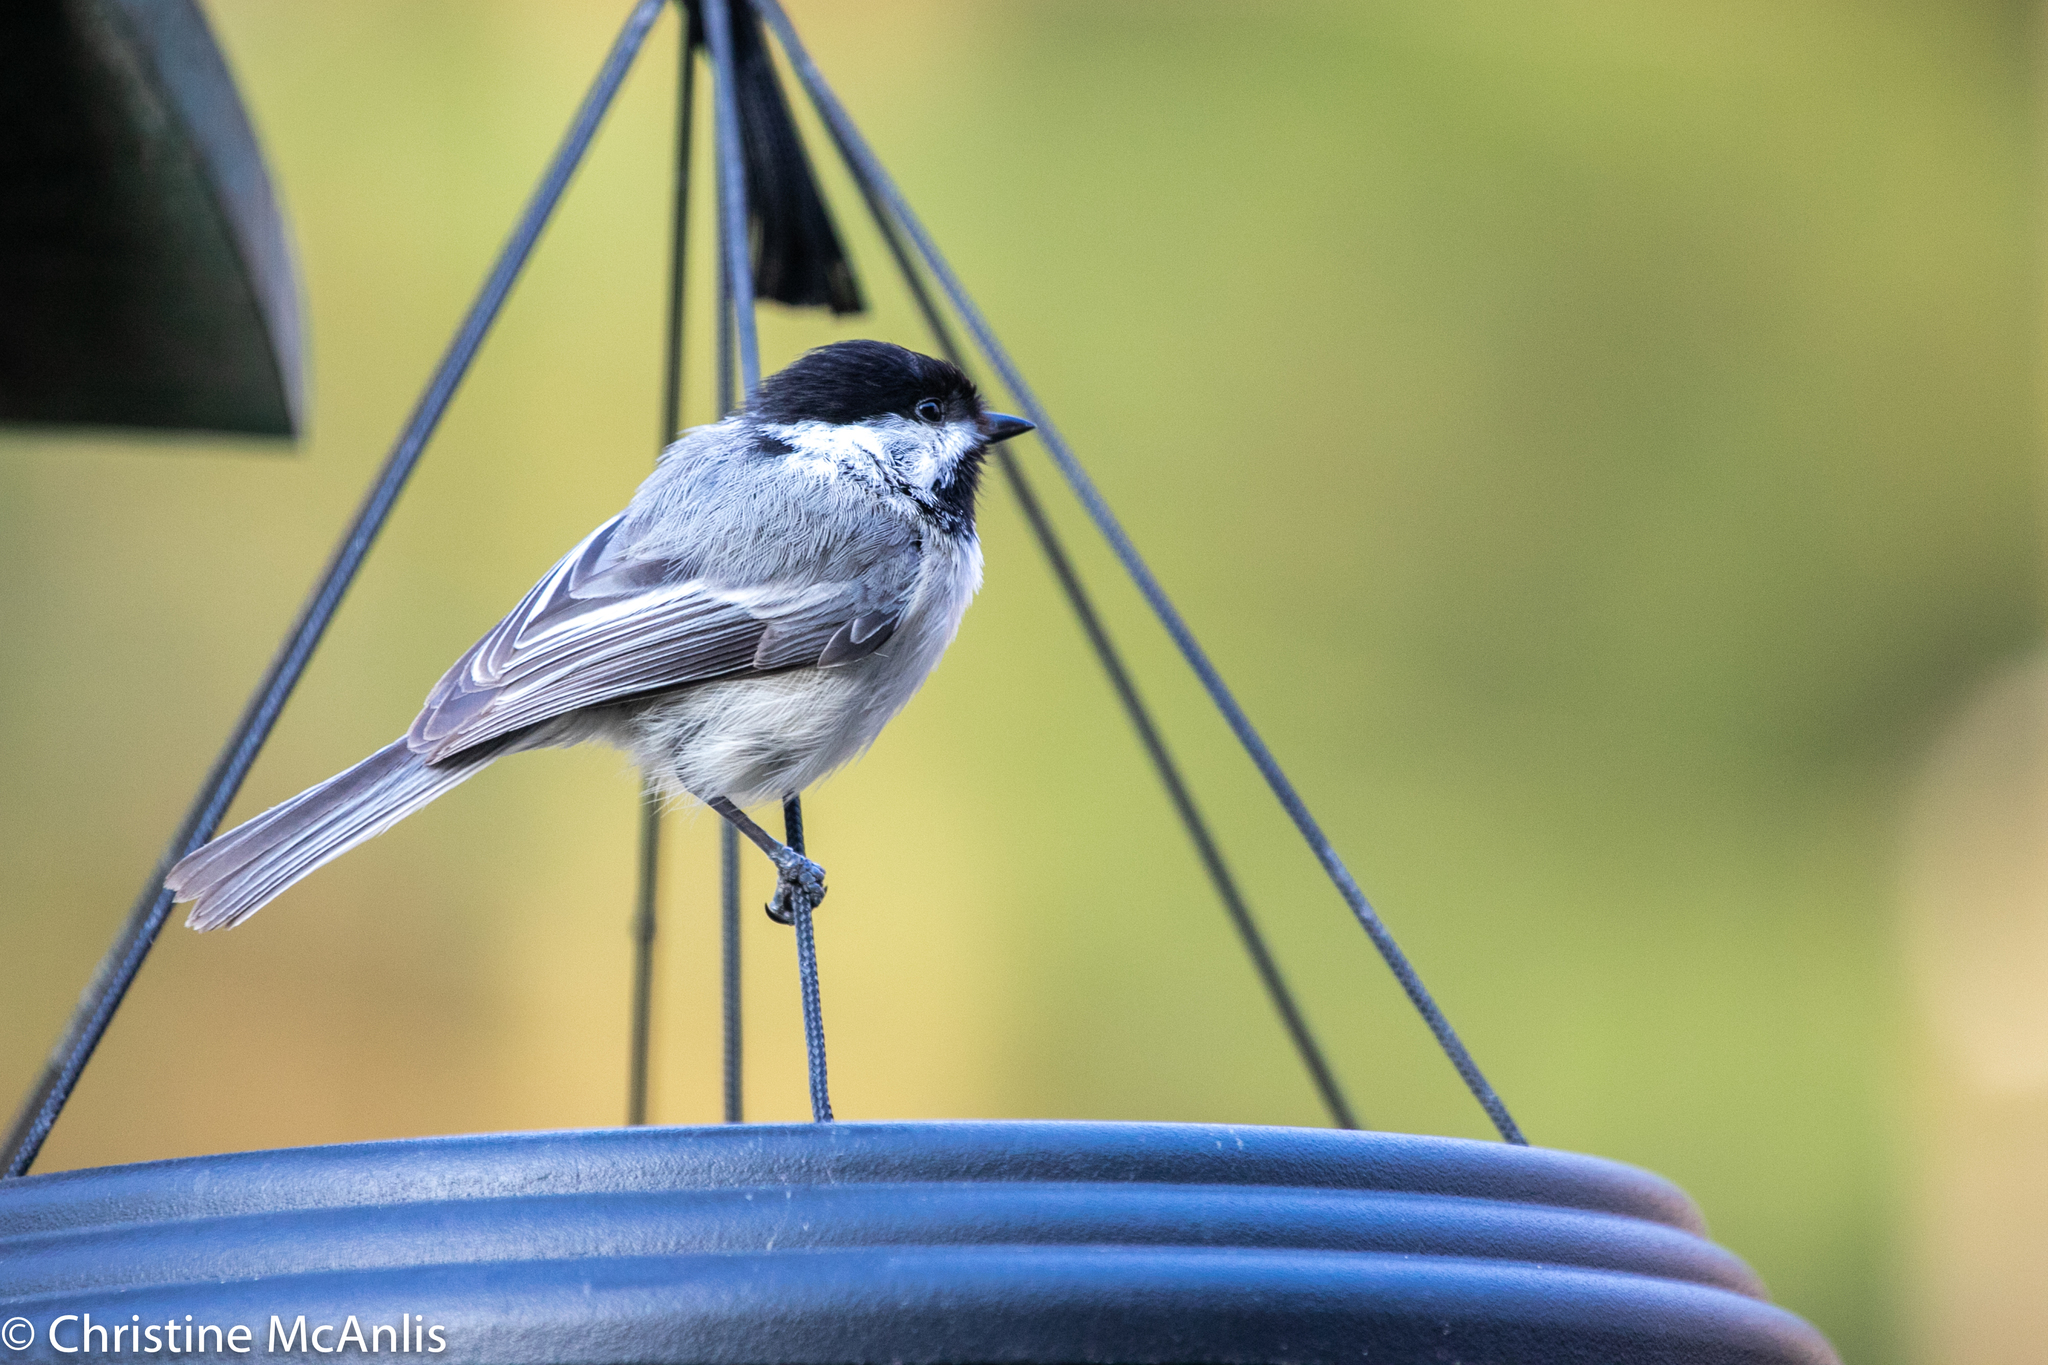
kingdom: Animalia
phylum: Chordata
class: Aves
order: Passeriformes
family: Paridae
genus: Poecile
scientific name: Poecile atricapillus
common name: Black-capped chickadee
